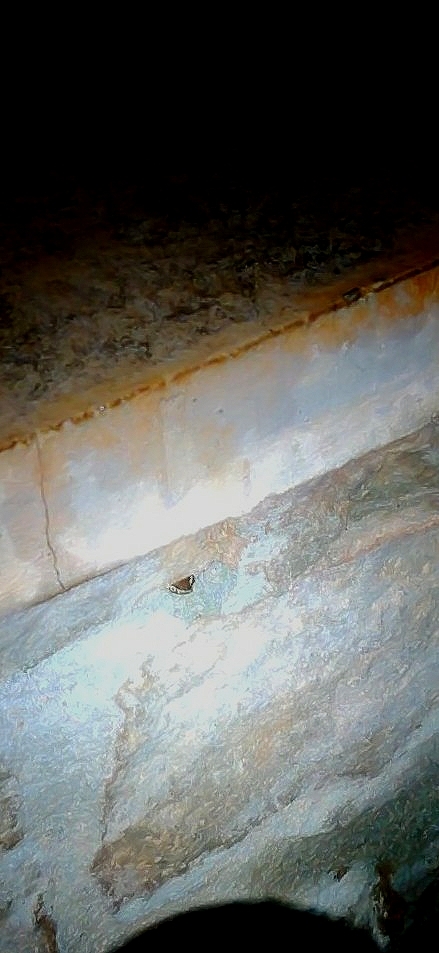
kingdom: Animalia
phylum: Chordata
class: Squamata
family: Colubridae
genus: Lycodon
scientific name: Lycodon fasciolatus
